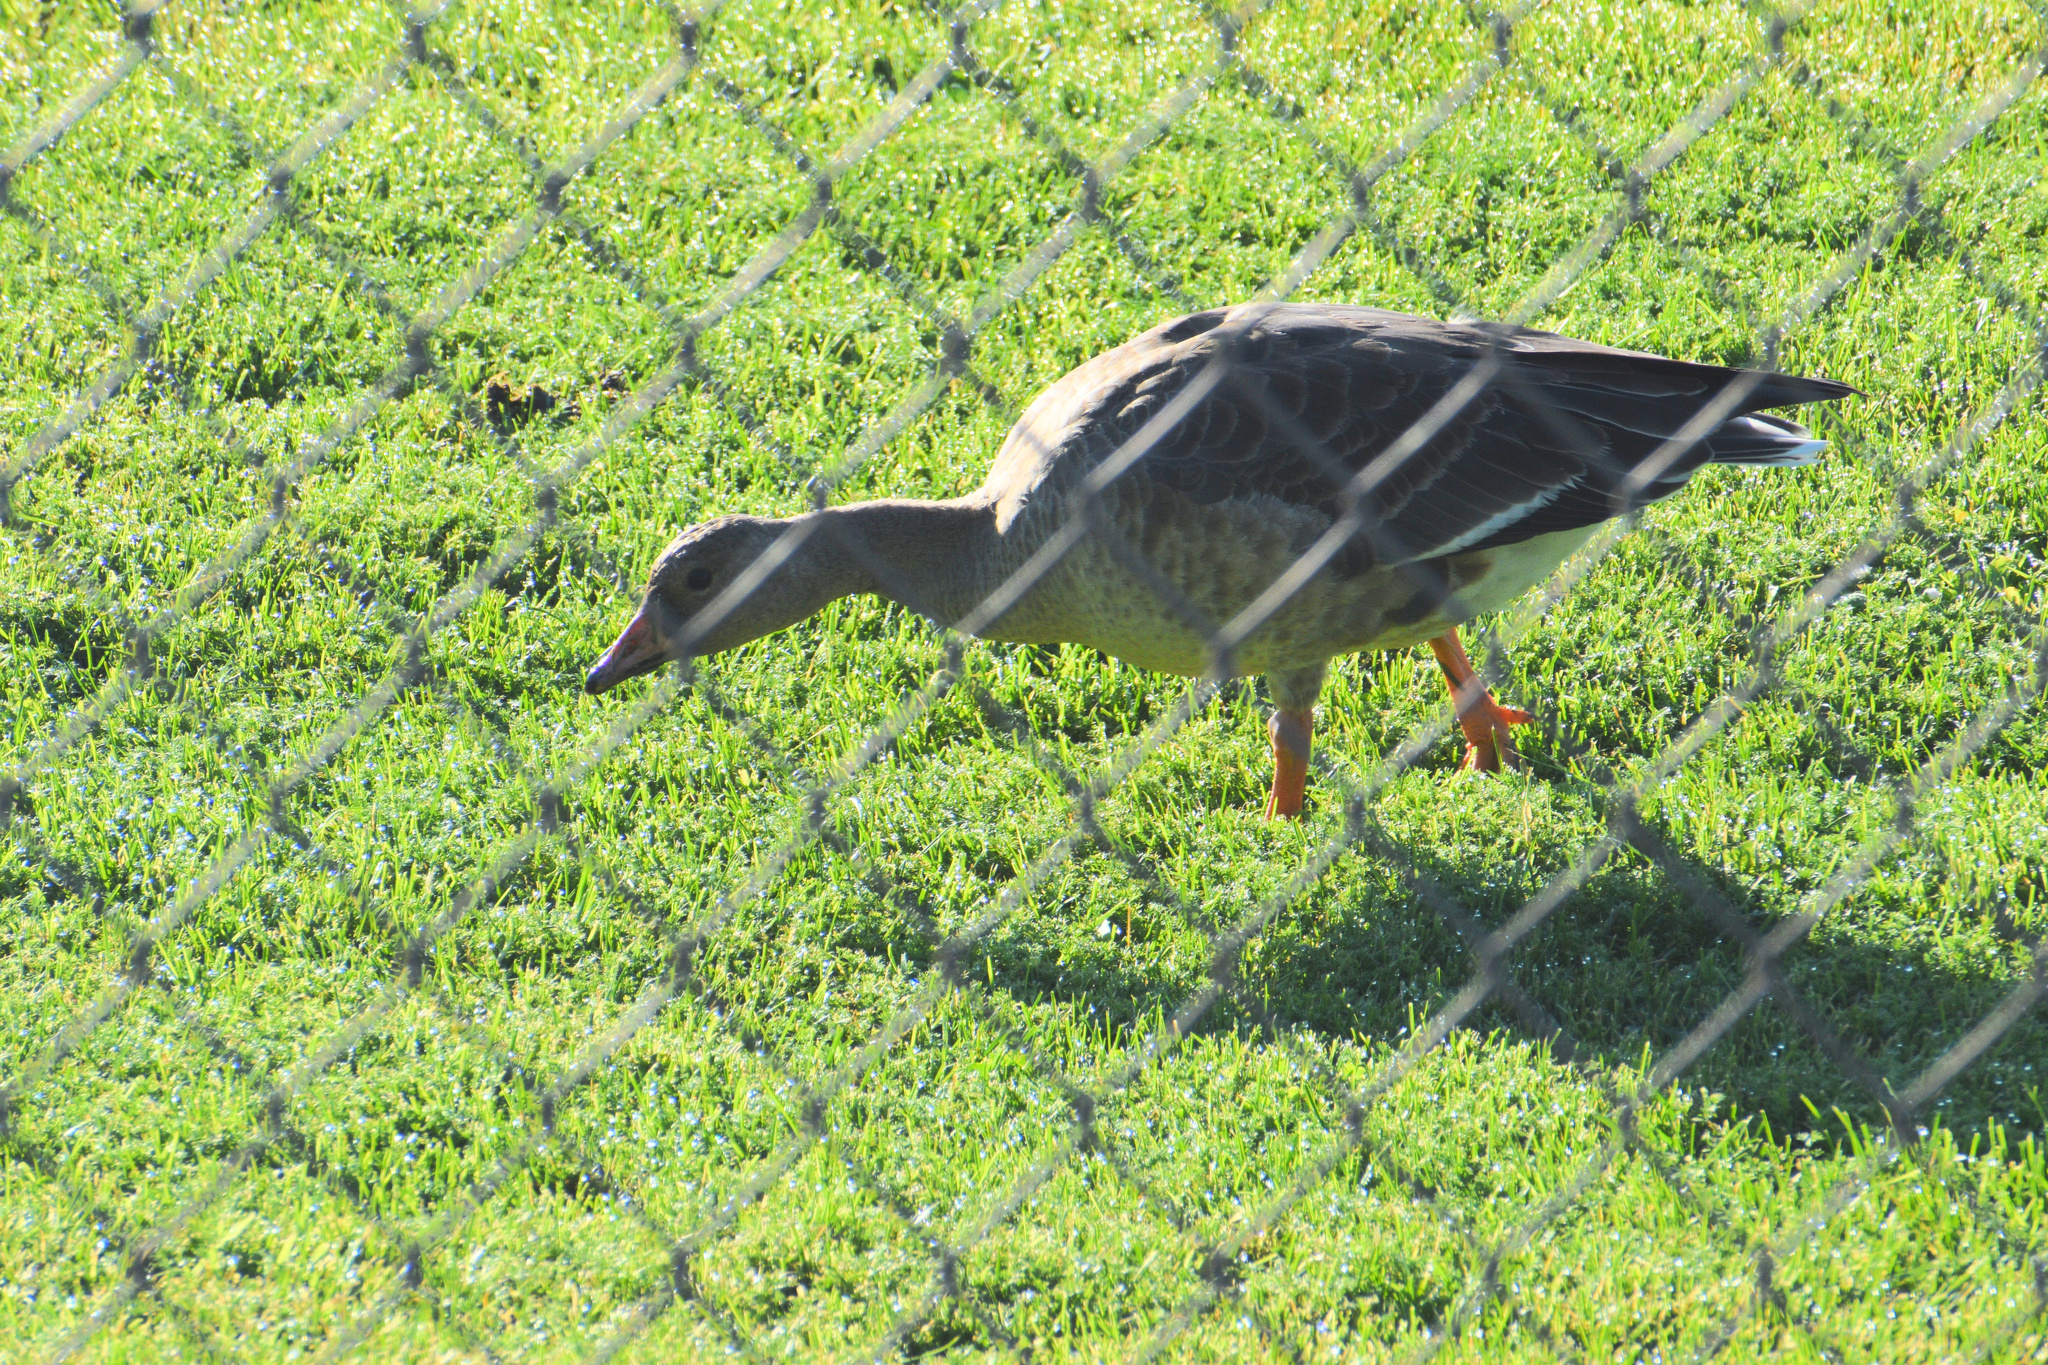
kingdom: Animalia
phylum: Chordata
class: Aves
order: Anseriformes
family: Anatidae
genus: Anser
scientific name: Anser albifrons
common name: Greater white-fronted goose
